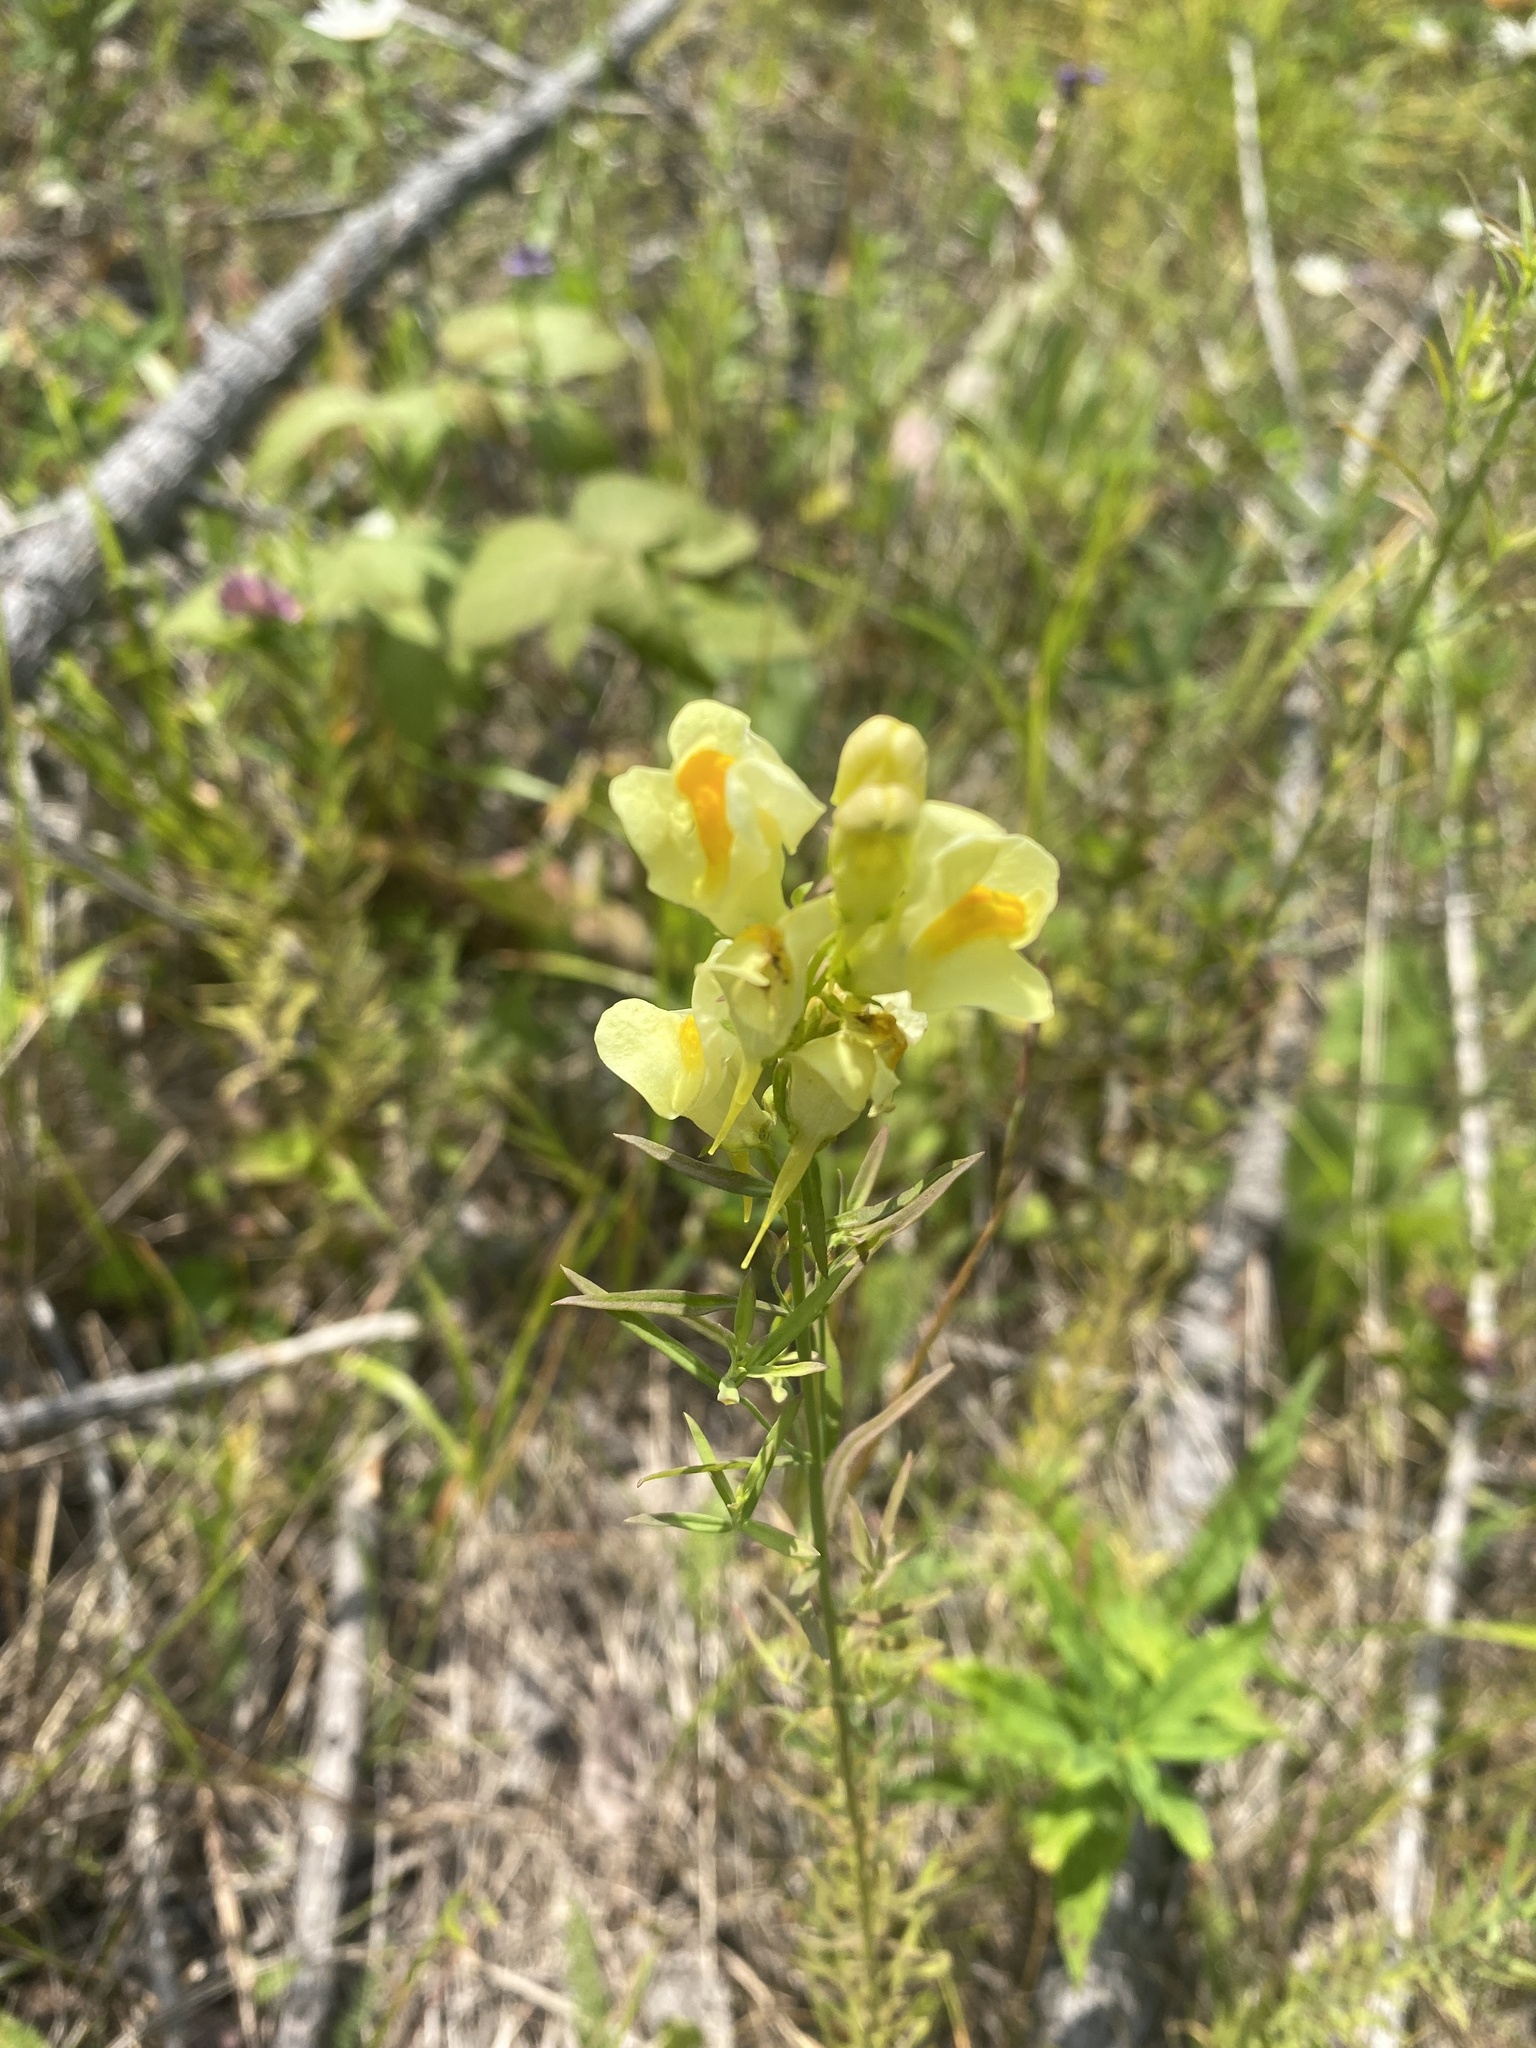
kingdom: Plantae
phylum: Tracheophyta
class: Magnoliopsida
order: Lamiales
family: Plantaginaceae
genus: Linaria
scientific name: Linaria vulgaris
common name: Butter and eggs
